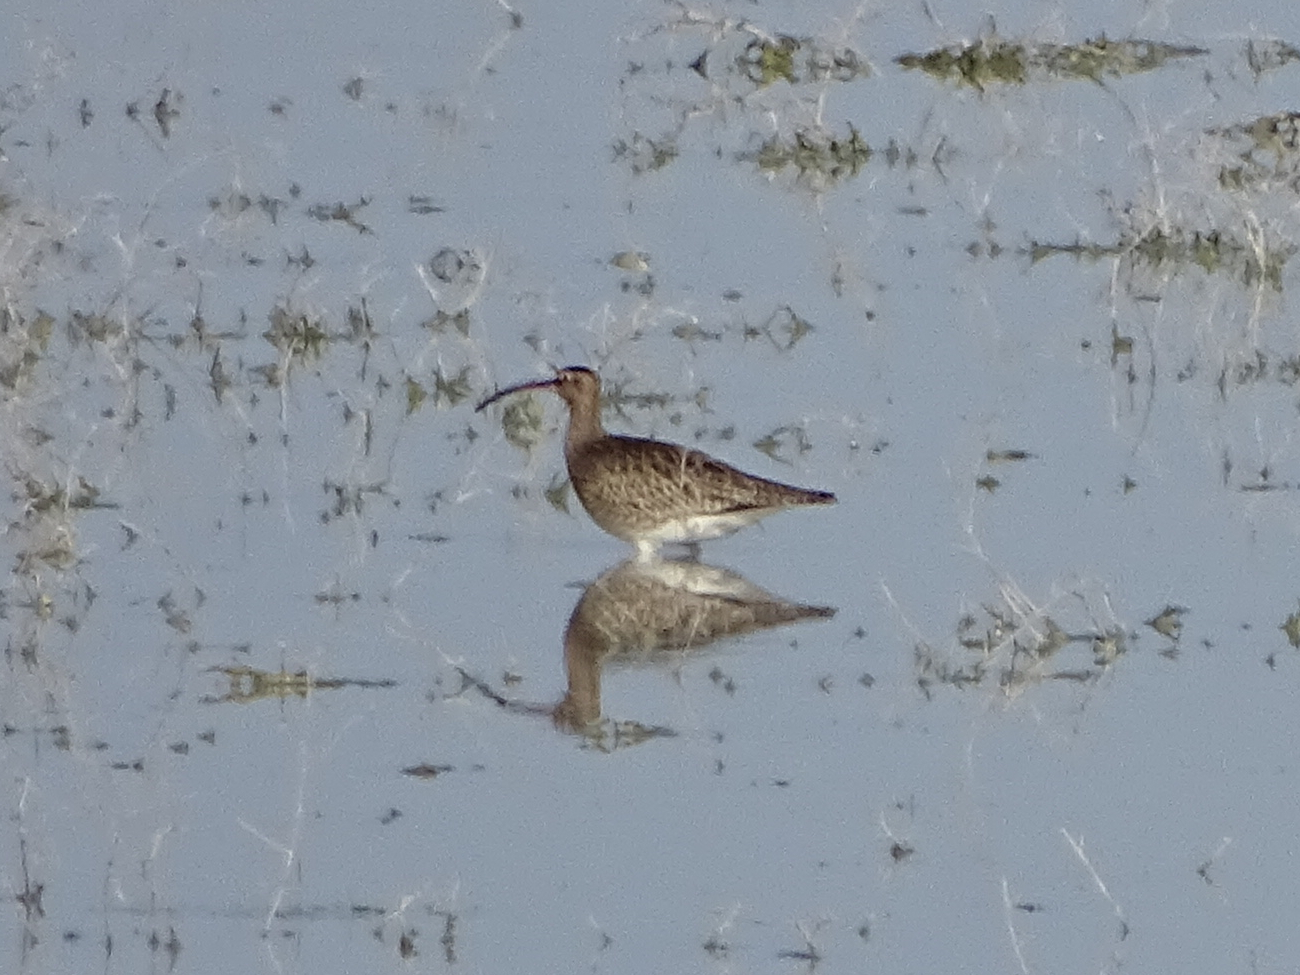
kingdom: Animalia
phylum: Chordata
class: Aves
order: Charadriiformes
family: Scolopacidae
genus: Numenius
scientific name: Numenius phaeopus
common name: Whimbrel
